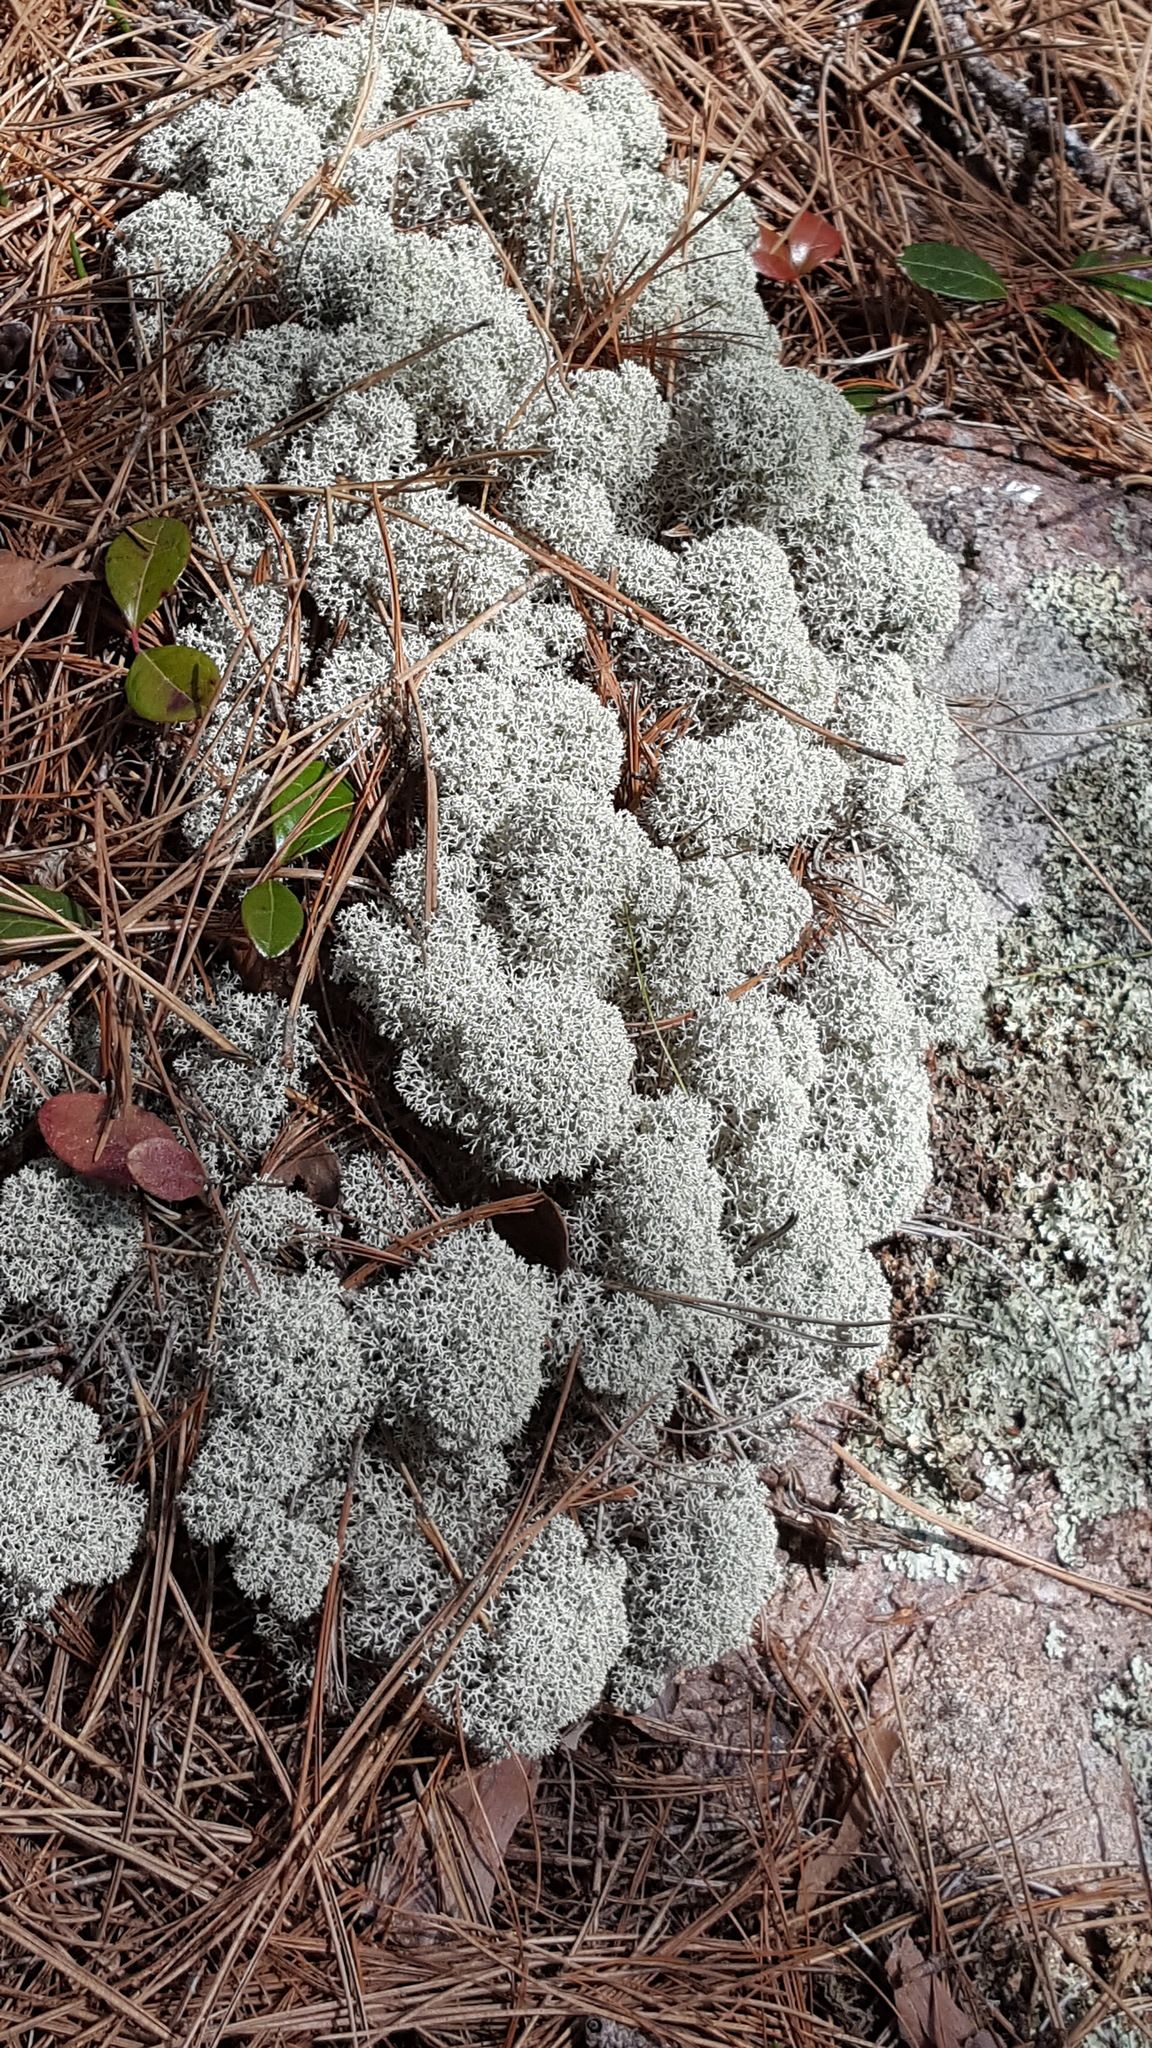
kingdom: Fungi
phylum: Ascomycota
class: Lecanoromycetes
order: Lecanorales
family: Cladoniaceae
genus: Cladonia
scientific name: Cladonia stellaris
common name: Star-tipped reindeer lichen
